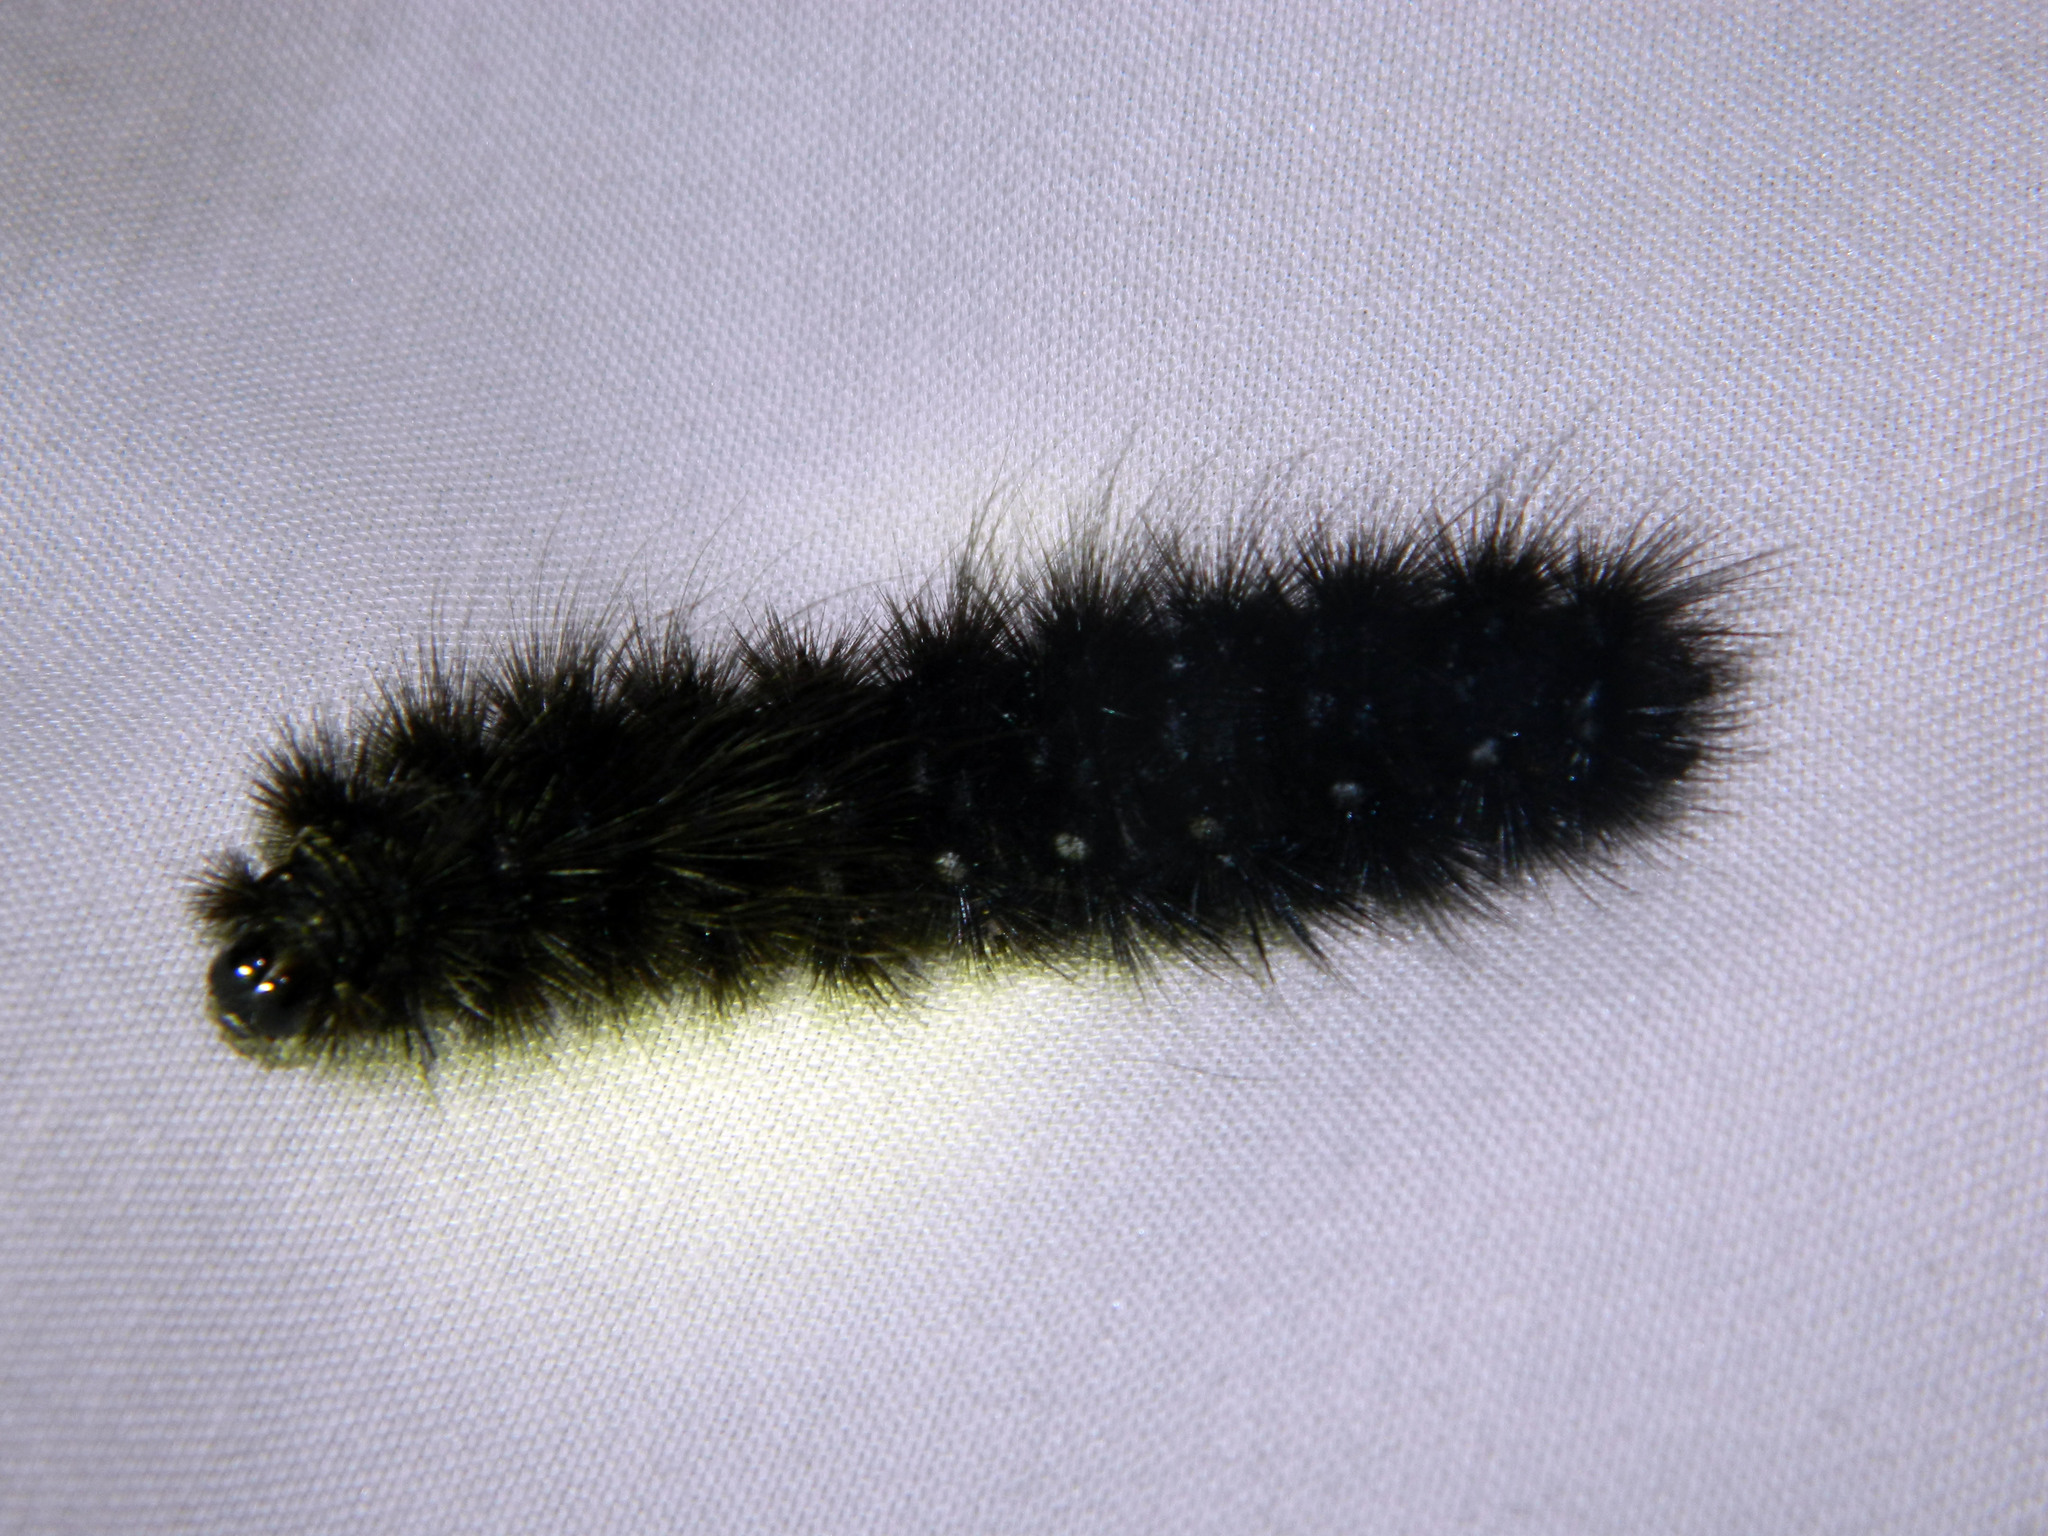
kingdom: Animalia
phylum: Arthropoda
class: Insecta
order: Lepidoptera
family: Erebidae
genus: Arctia
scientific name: Arctia parthenos
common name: St. lawrence tiger moth
